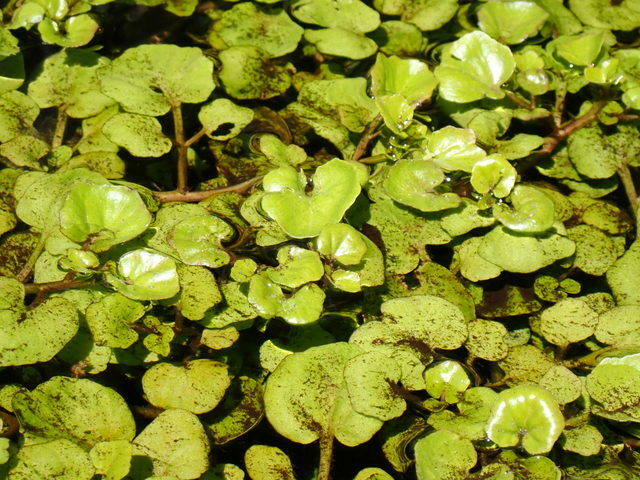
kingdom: Plantae
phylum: Tracheophyta
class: Magnoliopsida
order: Brassicales
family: Brassicaceae
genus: Nasturtium
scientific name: Nasturtium floridanum
